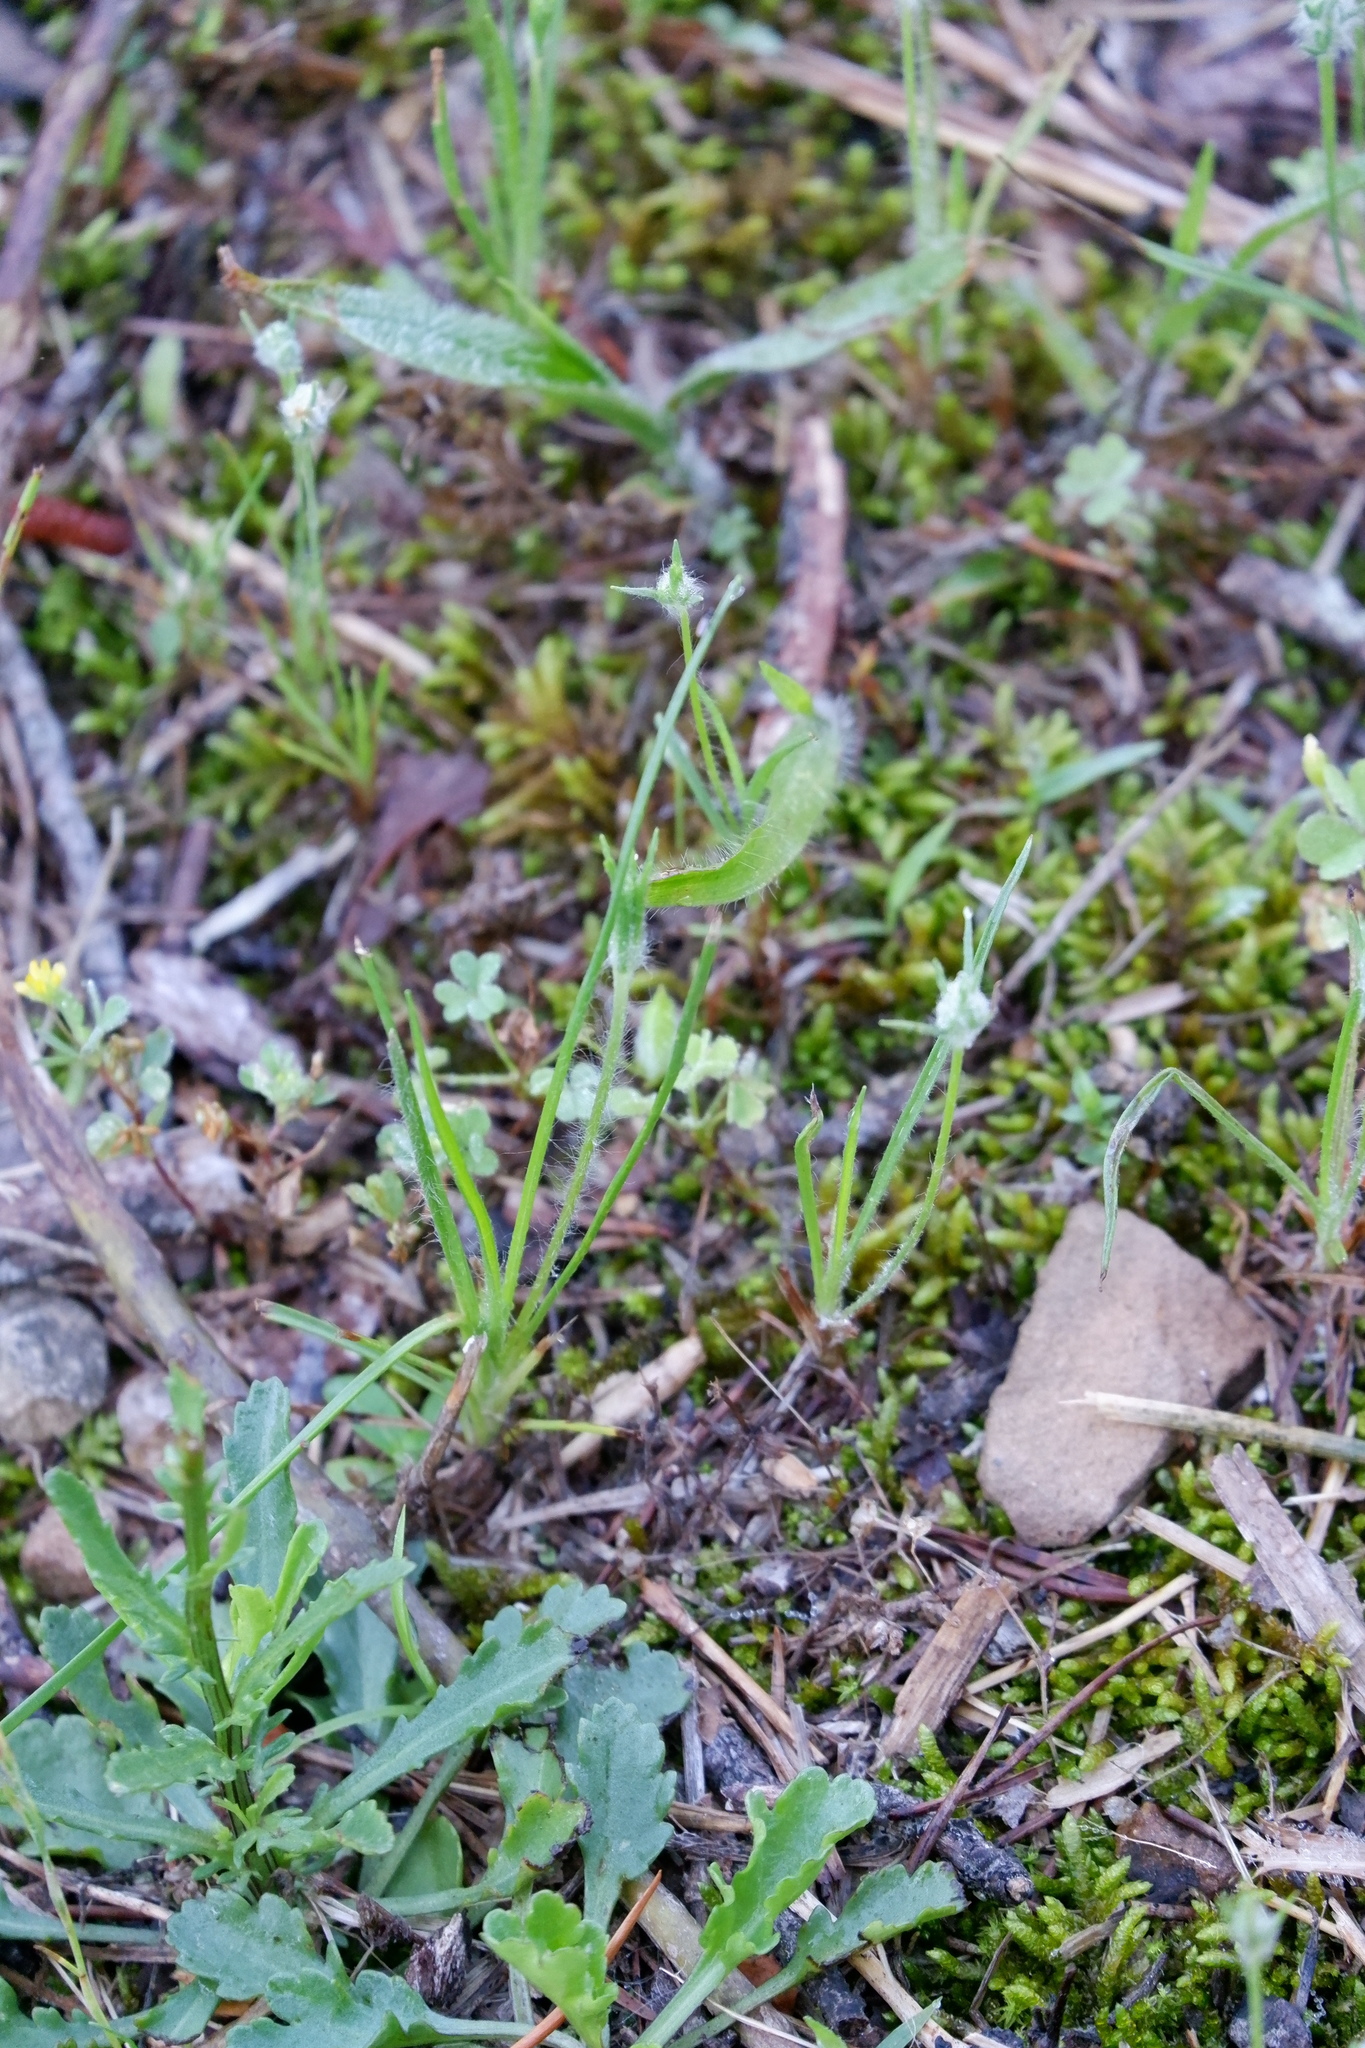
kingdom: Plantae
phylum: Tracheophyta
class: Magnoliopsida
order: Lamiales
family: Plantaginaceae
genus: Plantago
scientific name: Plantago aristata
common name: Bracted plantain
